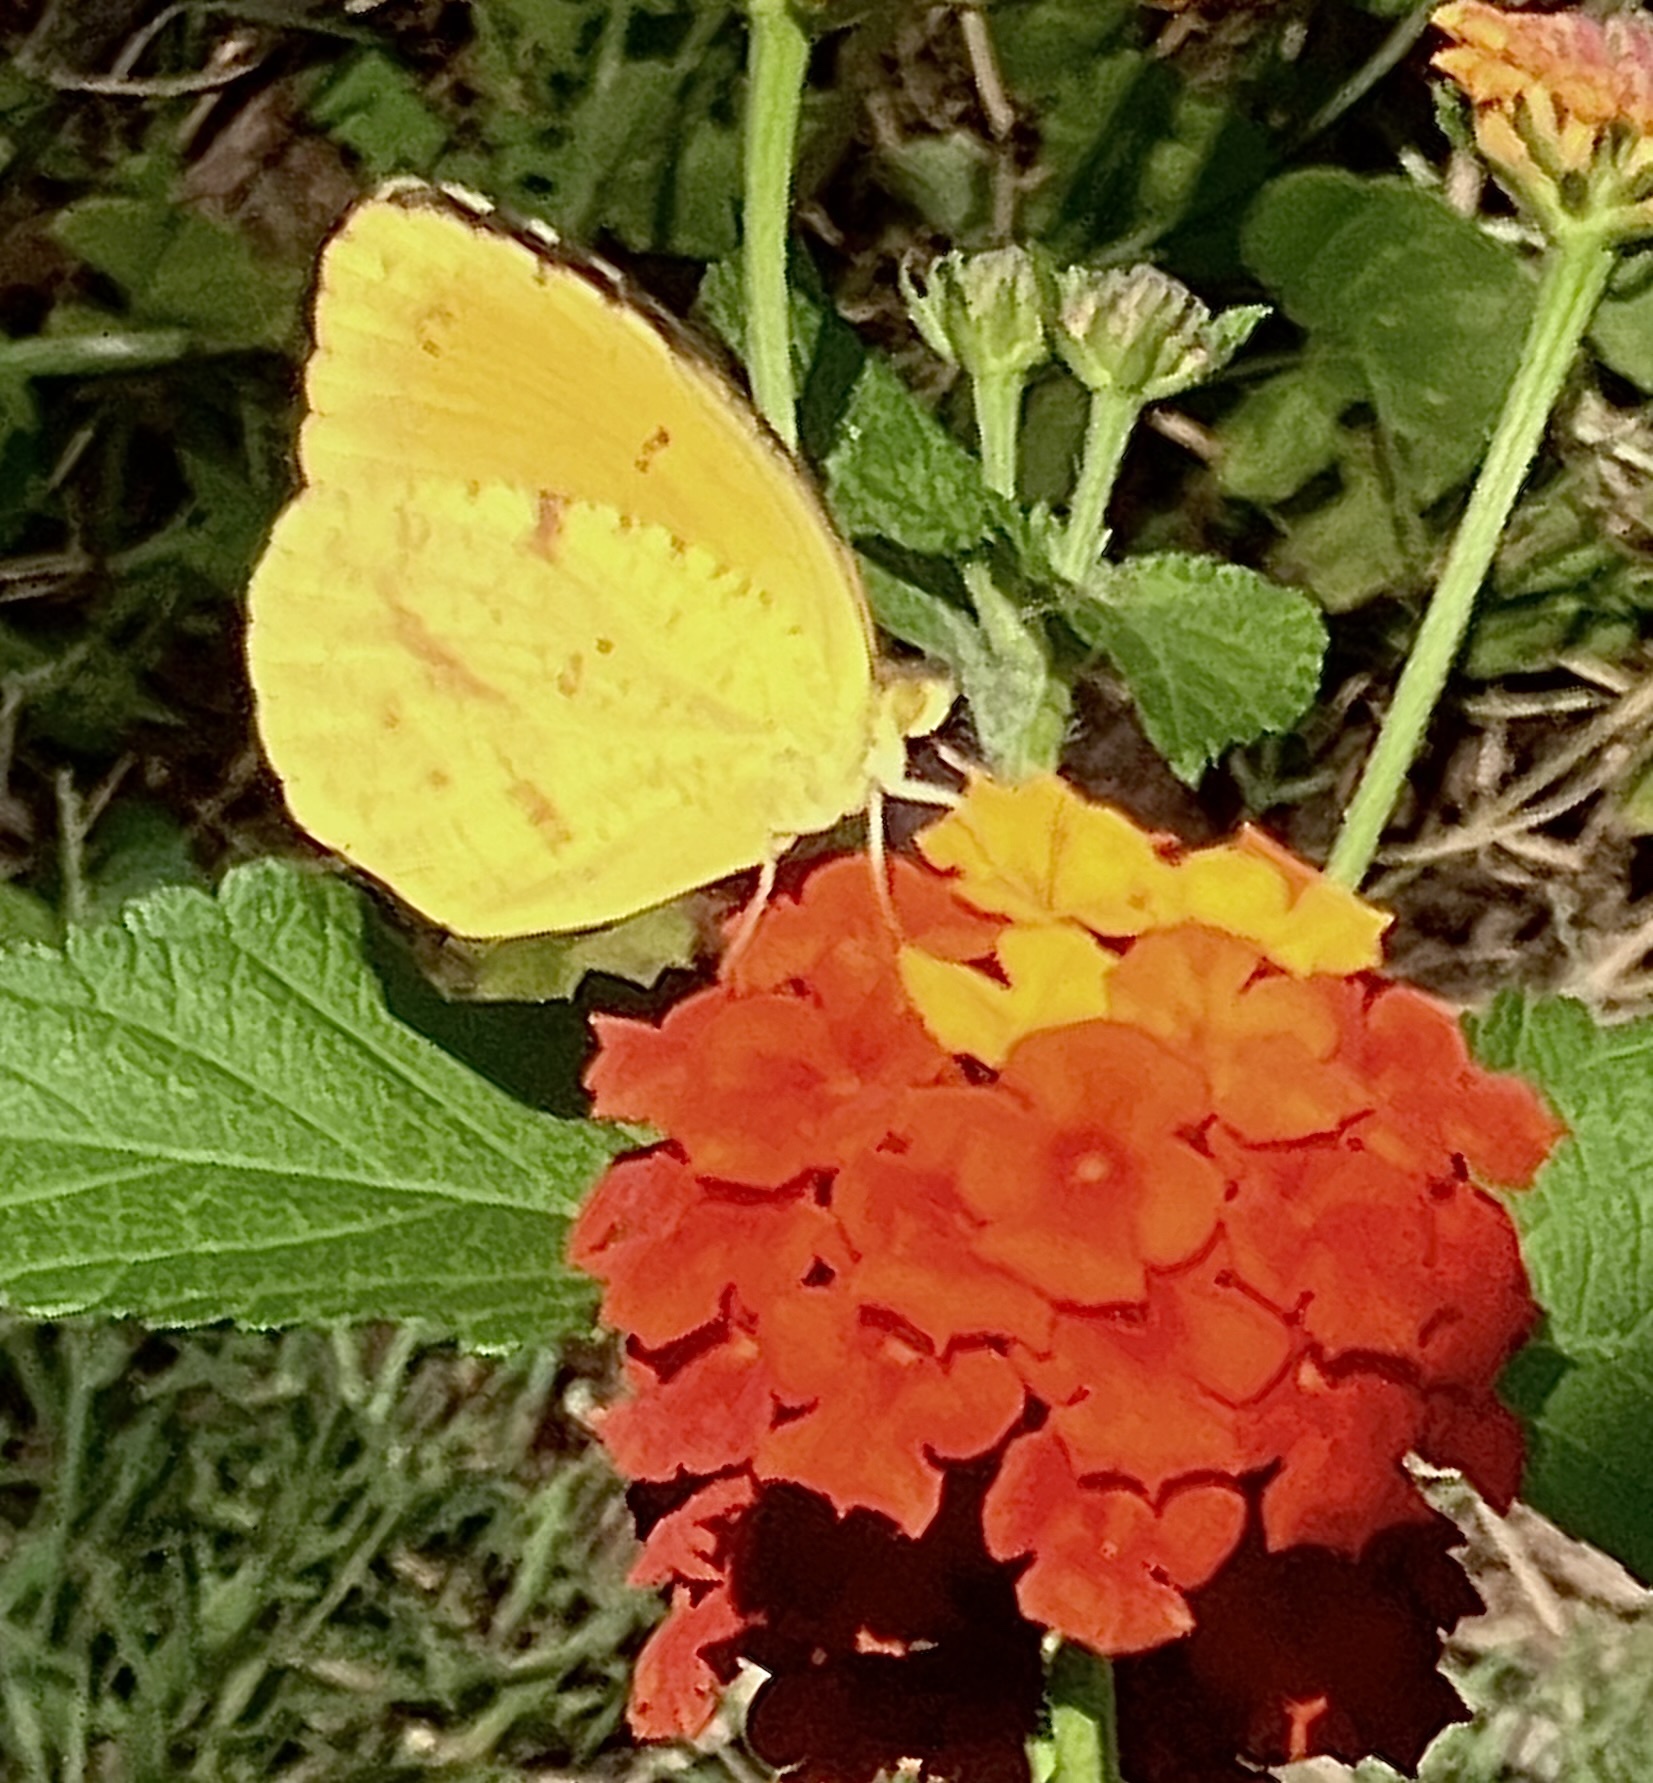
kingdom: Animalia
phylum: Arthropoda
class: Insecta
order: Lepidoptera
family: Pieridae
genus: Abaeis
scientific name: Abaeis nicippe
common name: Sleepy orange
